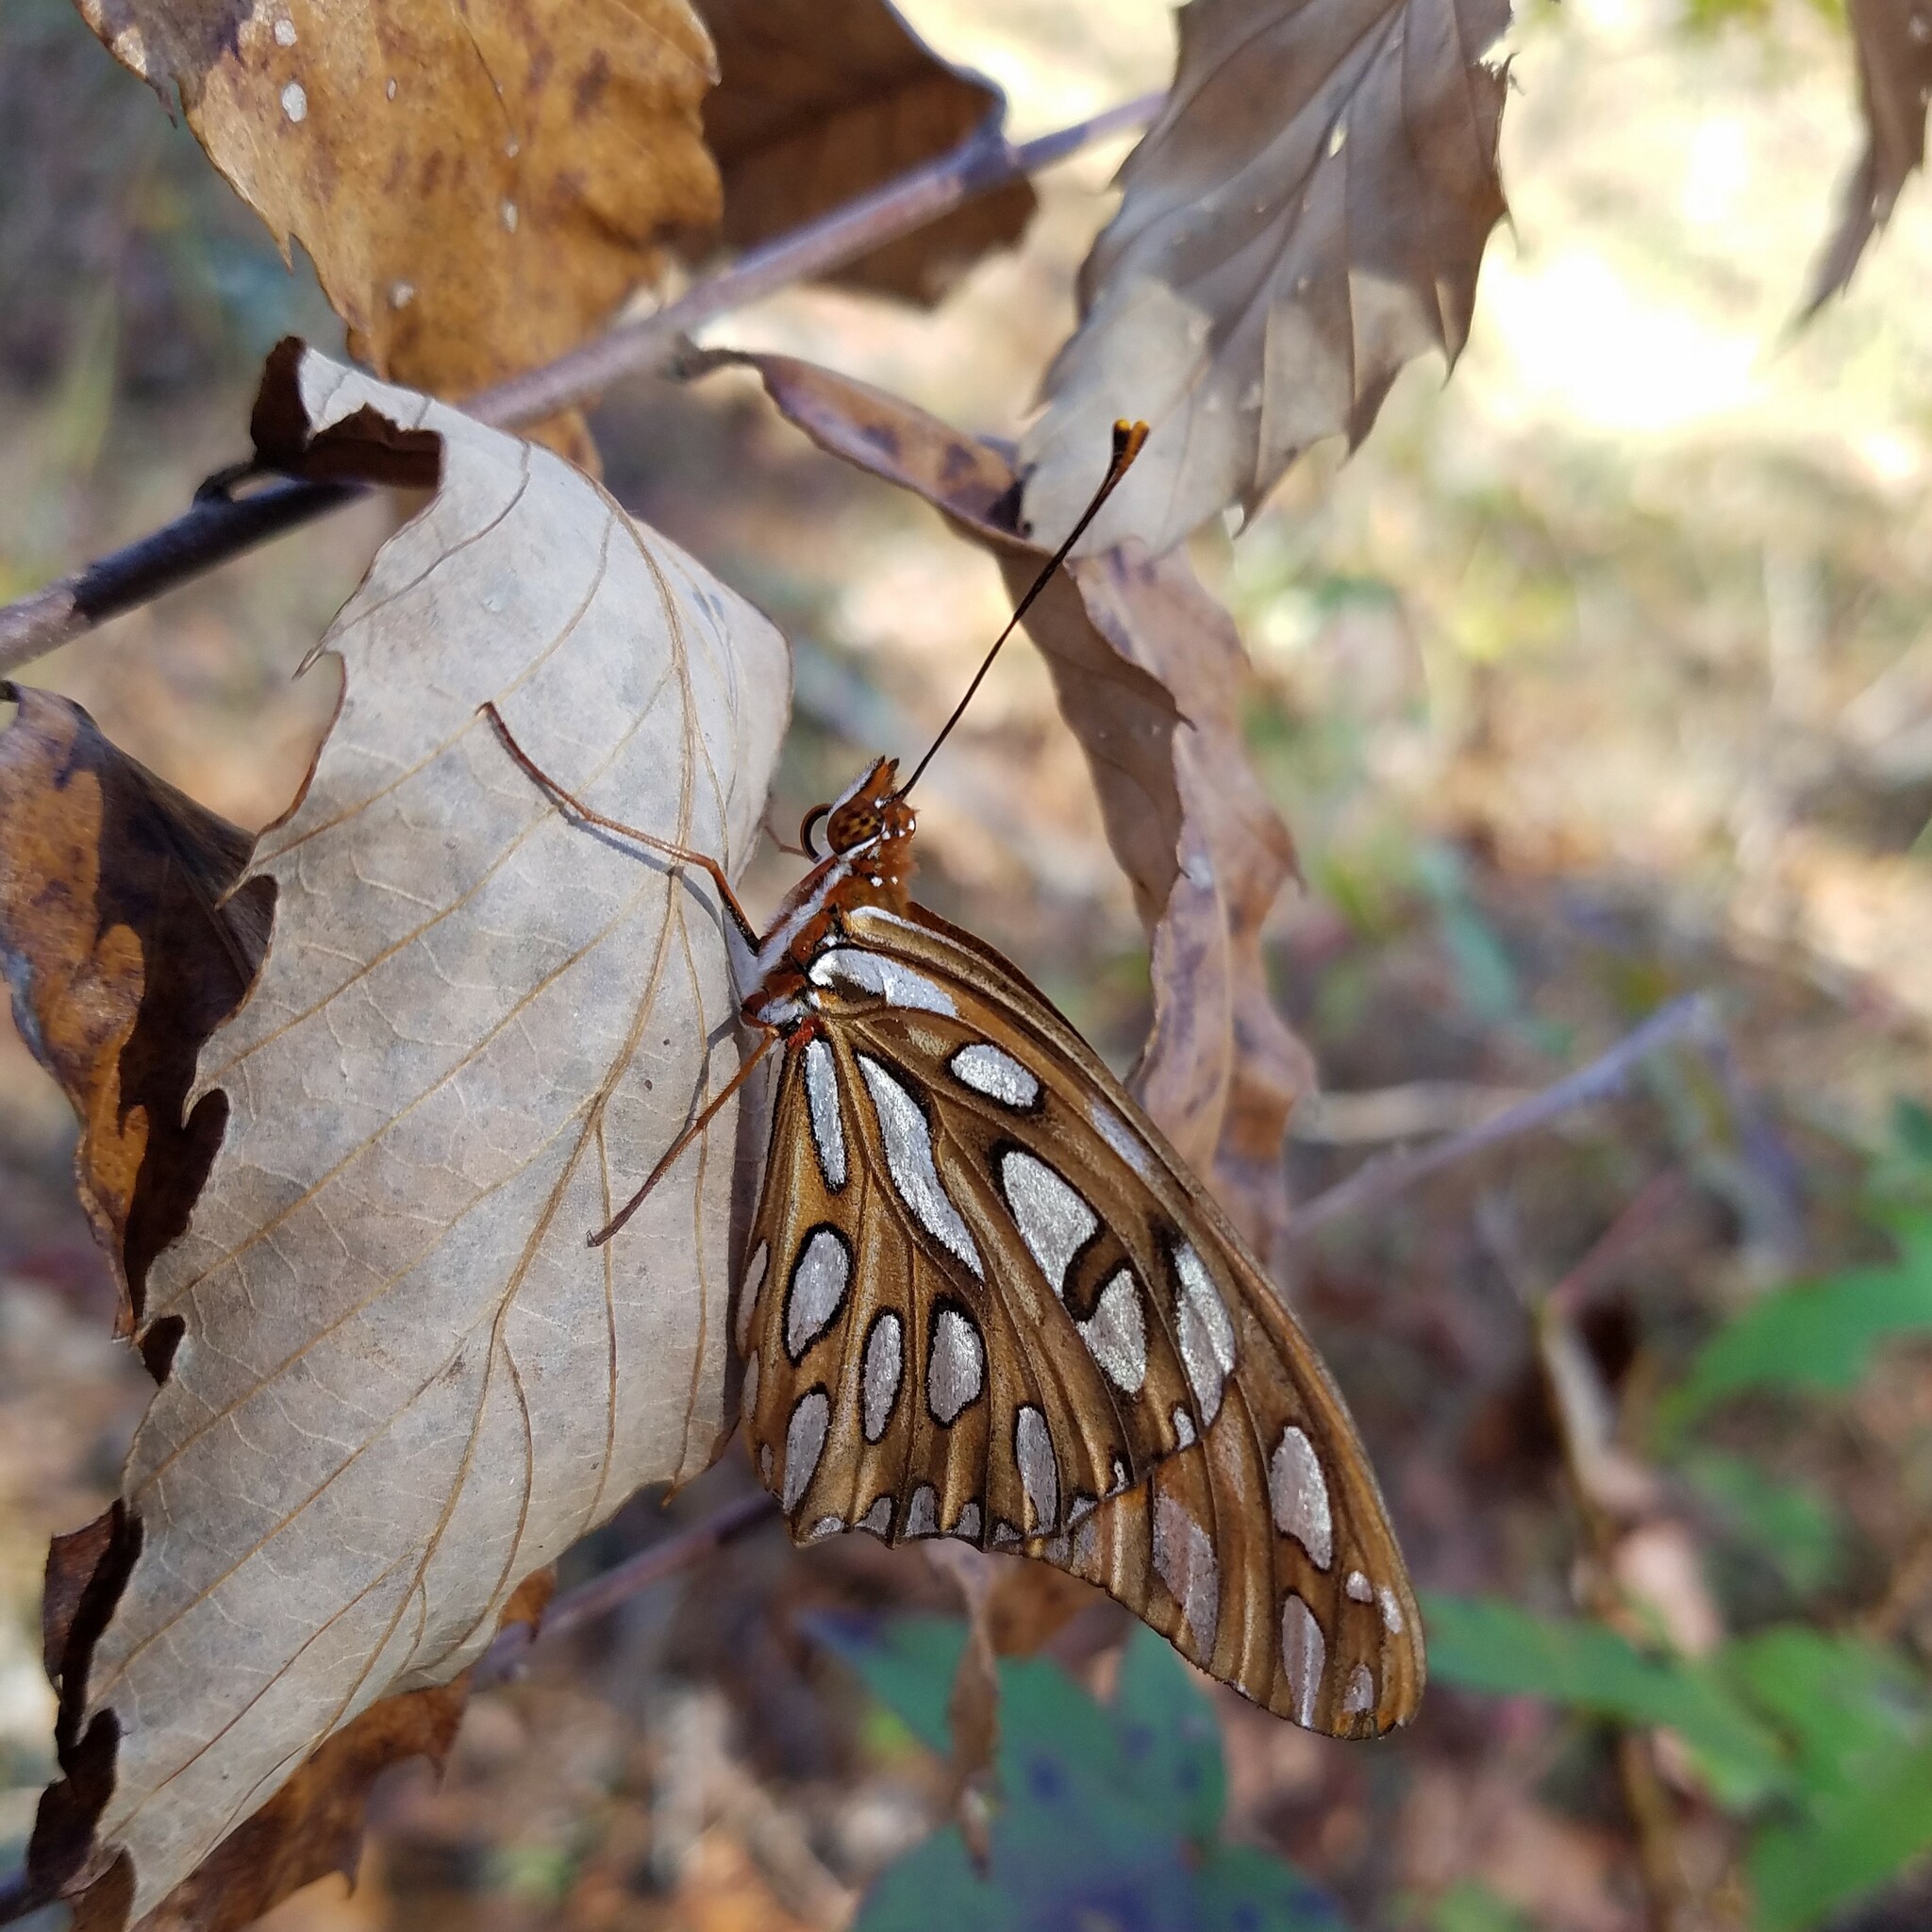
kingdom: Animalia
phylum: Arthropoda
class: Insecta
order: Lepidoptera
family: Nymphalidae
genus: Dione
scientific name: Dione vanillae
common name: Gulf fritillary
